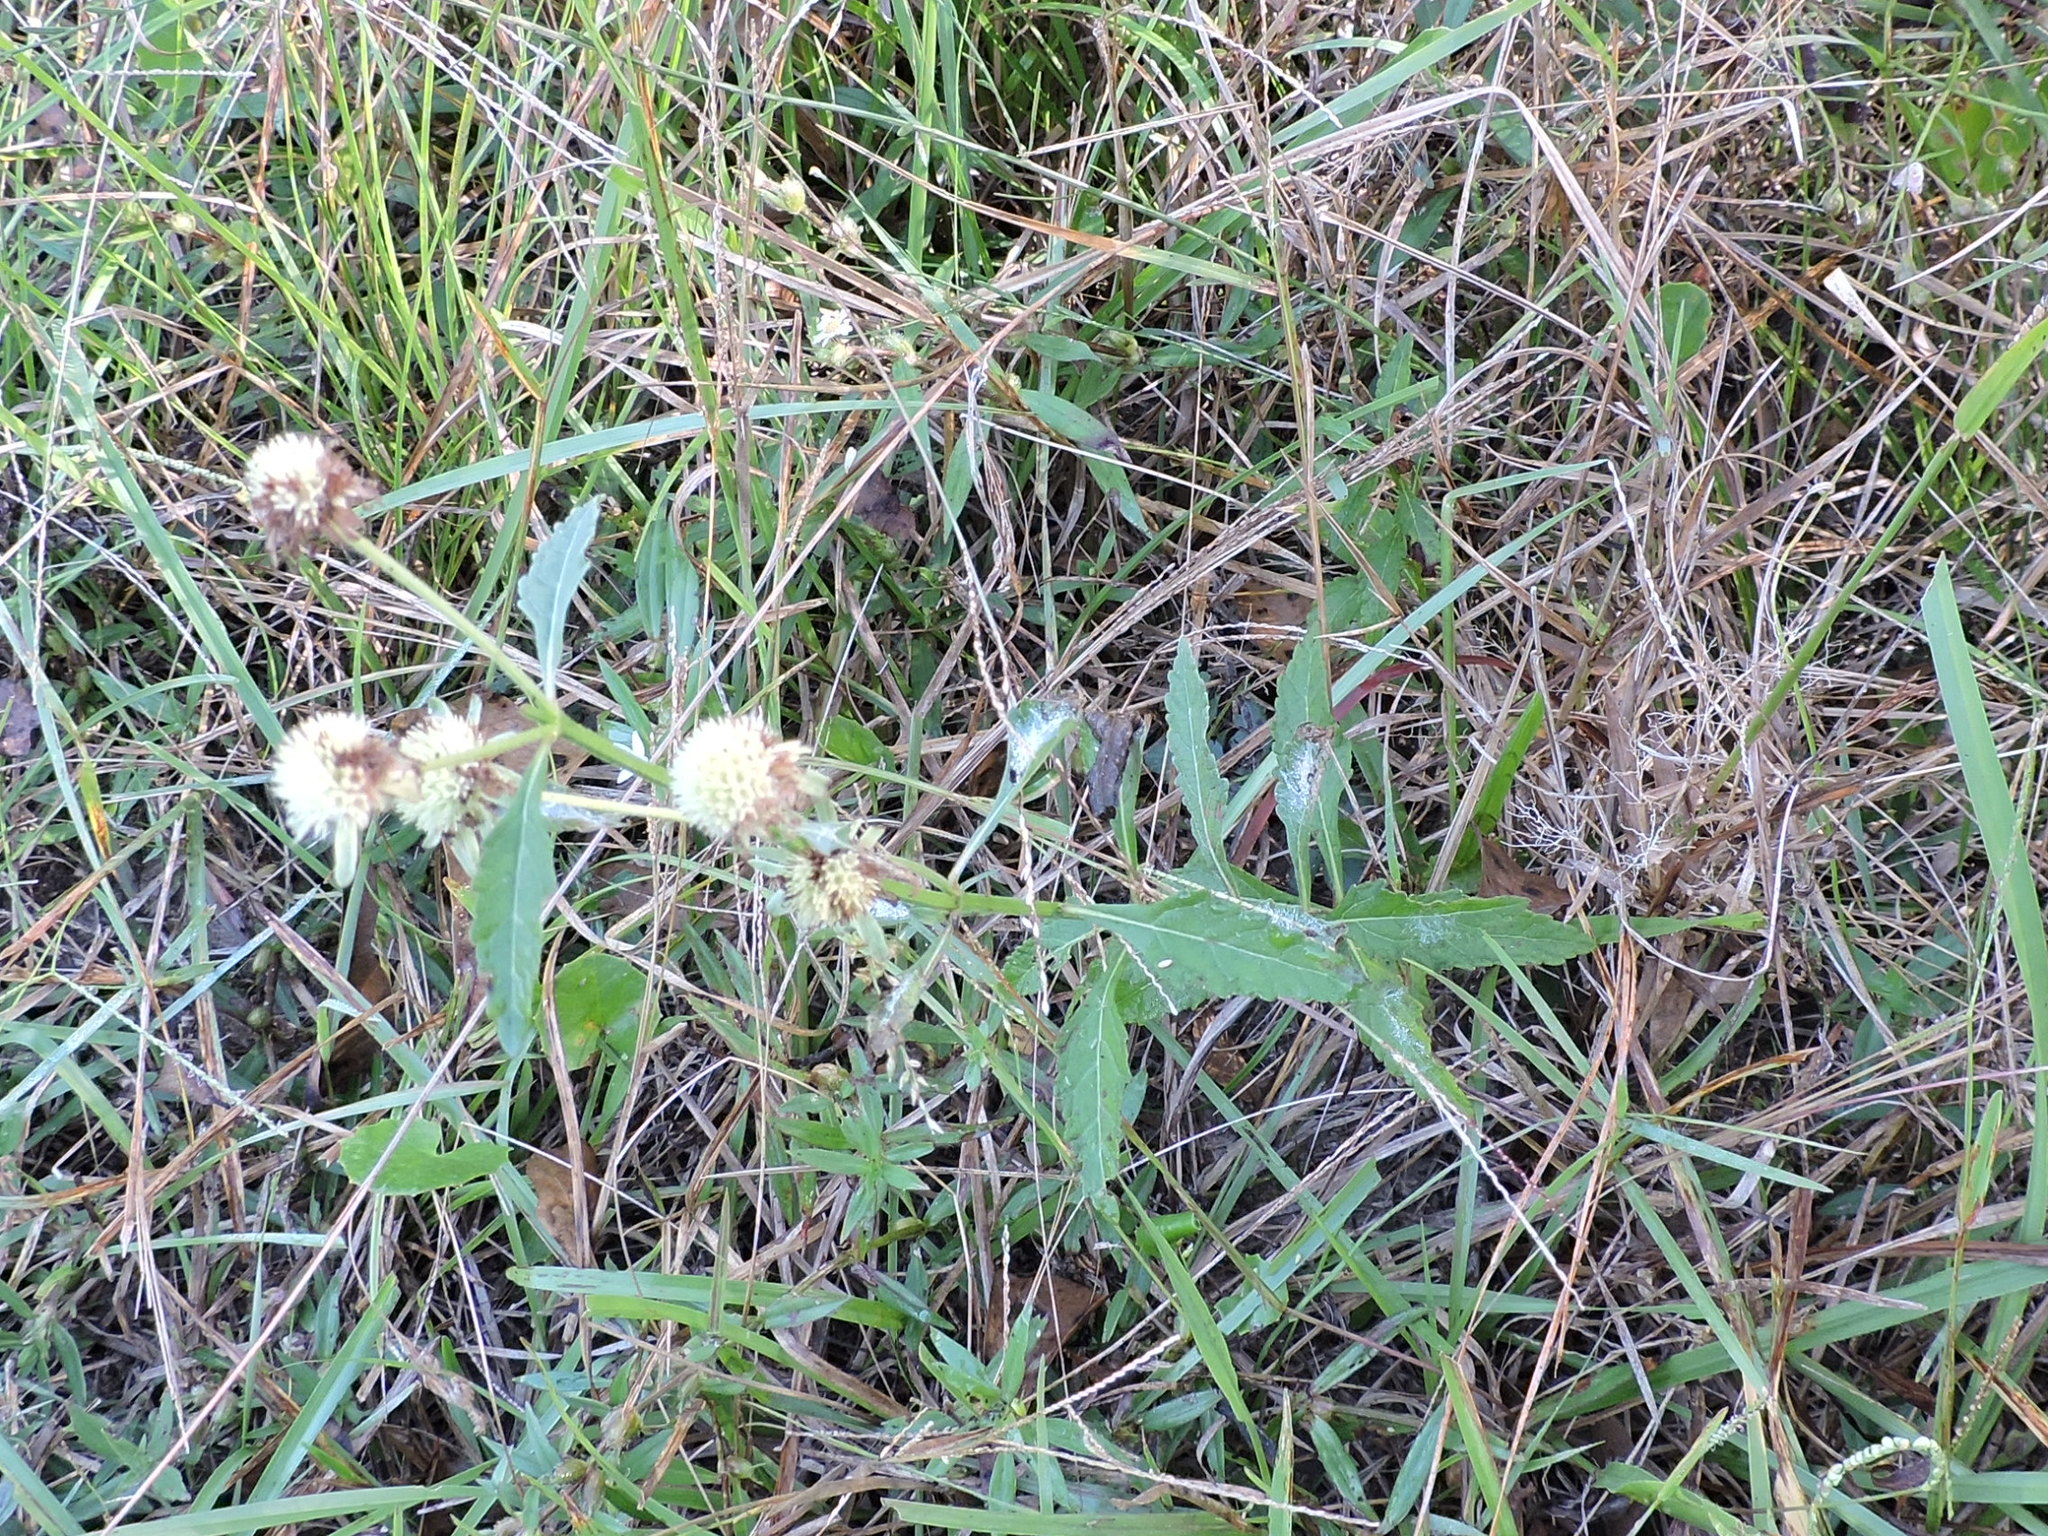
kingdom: Plantae
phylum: Tracheophyta
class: Magnoliopsida
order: Lamiales
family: Lamiaceae
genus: Hyptis
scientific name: Hyptis alata
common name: Cluster bush-mint
